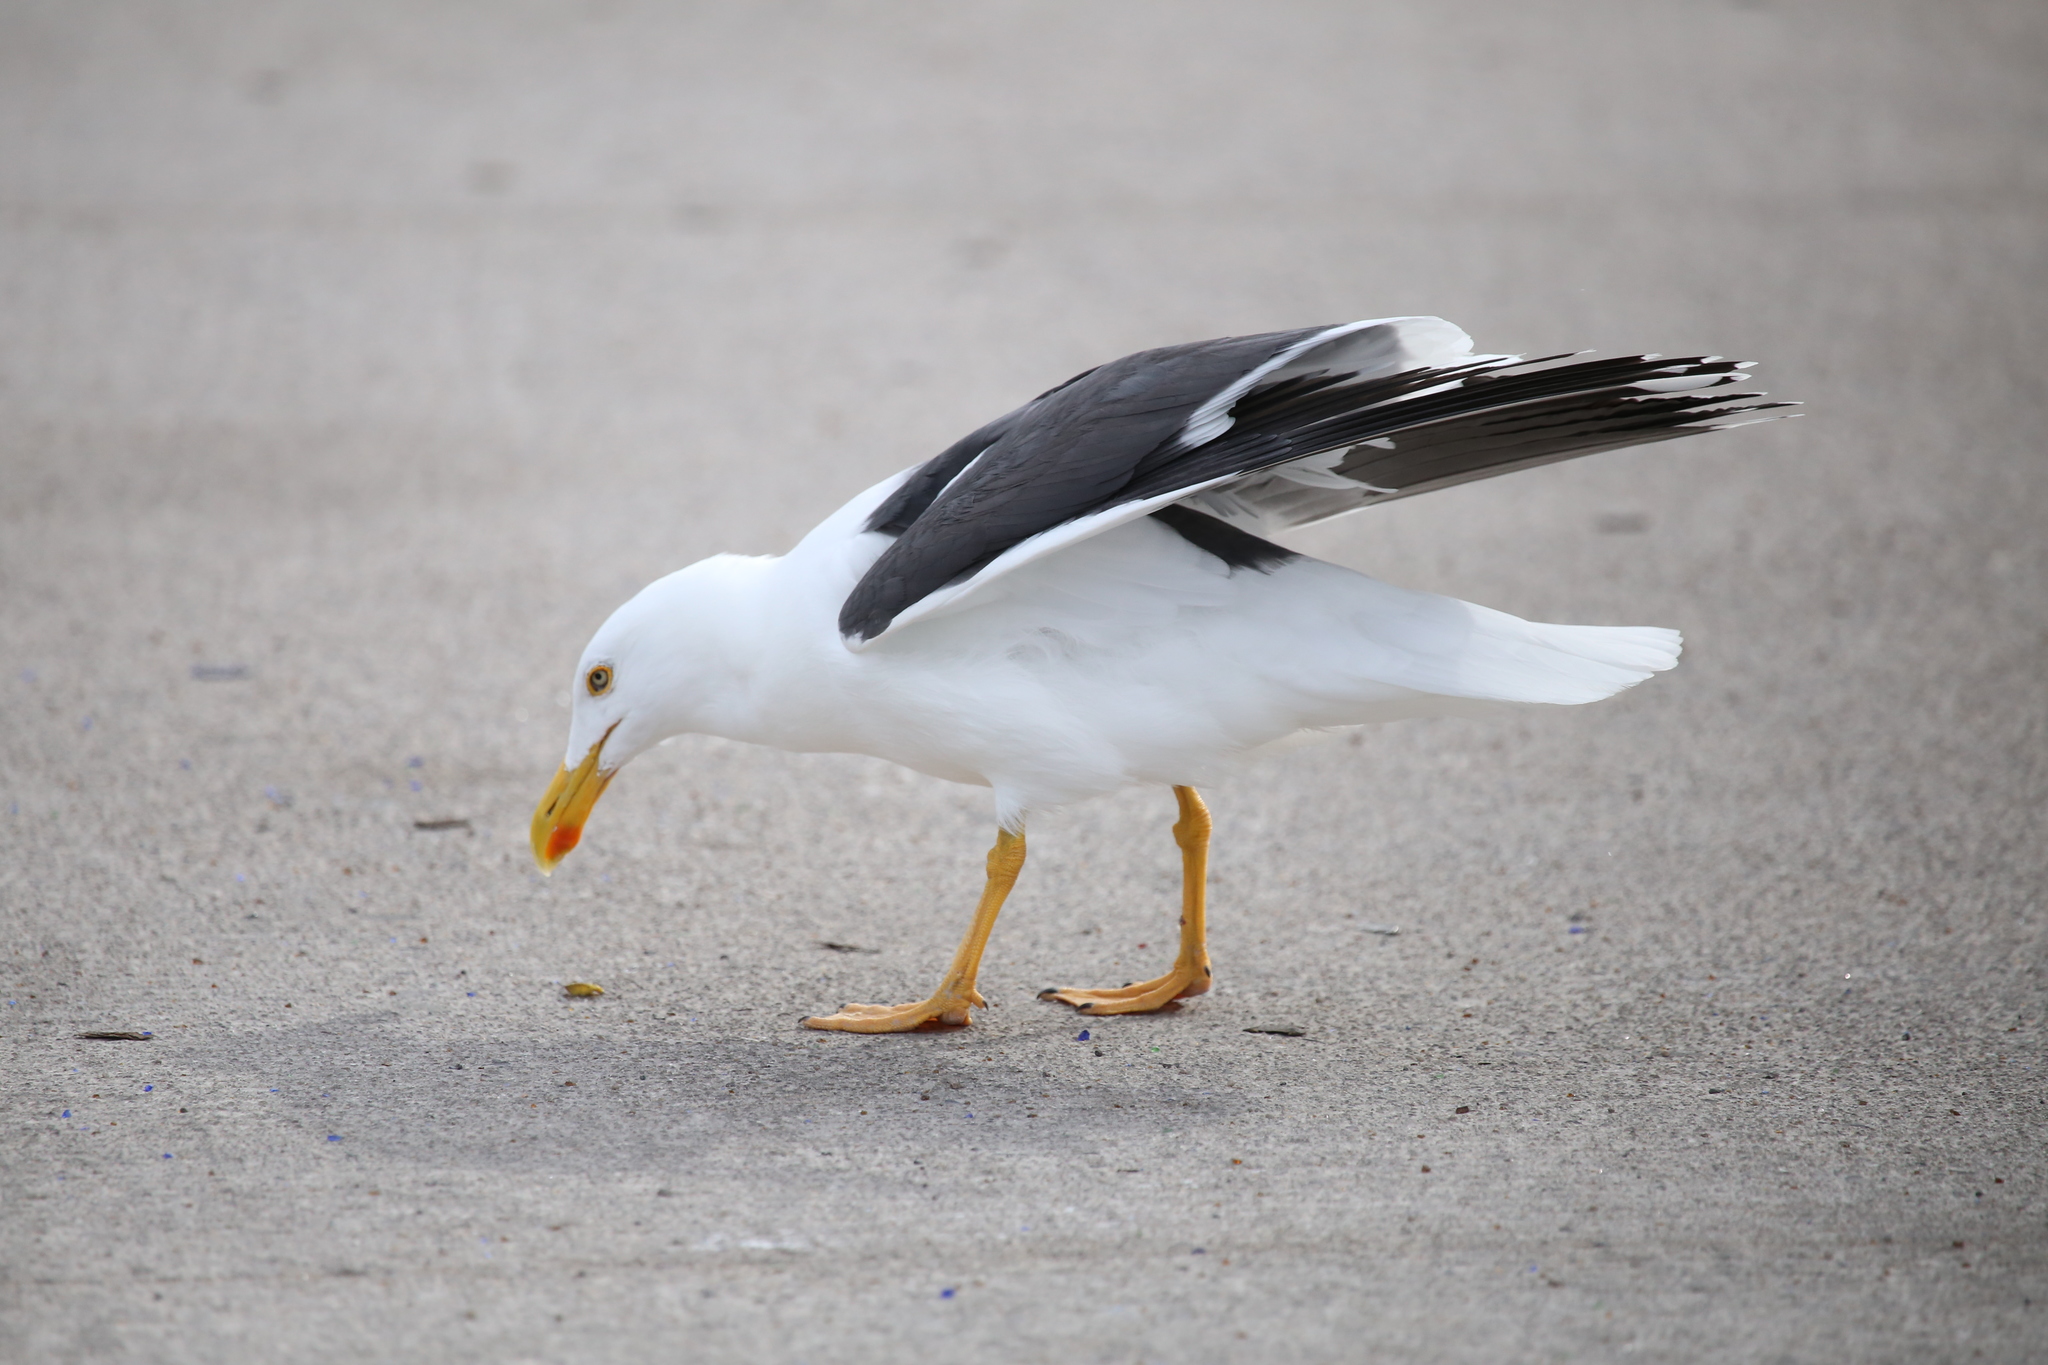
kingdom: Animalia
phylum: Chordata
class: Aves
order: Charadriiformes
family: Laridae
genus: Larus
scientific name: Larus livens
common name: Yellow-footed gull
